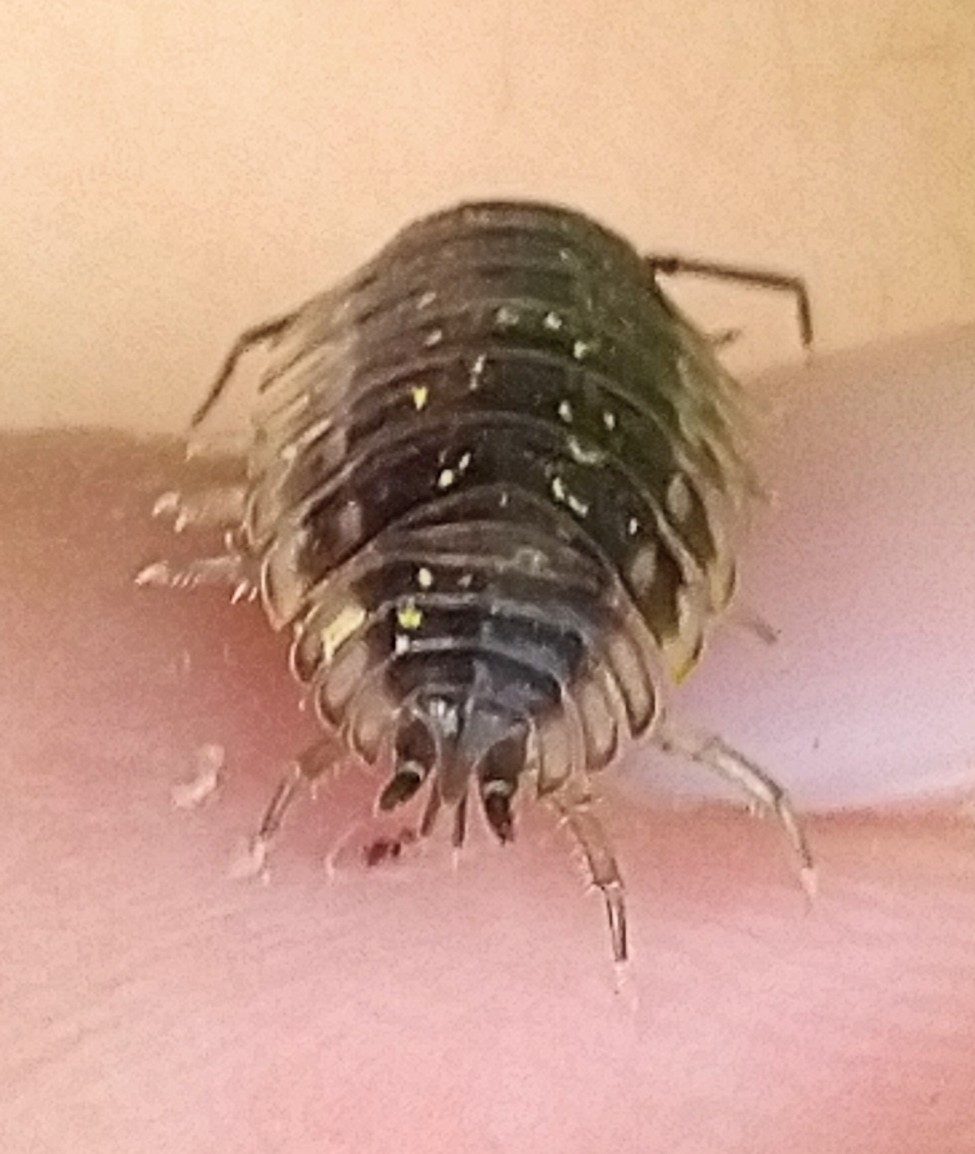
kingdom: Animalia
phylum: Arthropoda
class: Malacostraca
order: Isopoda
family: Oniscidae
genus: Oniscus
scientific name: Oniscus asellus
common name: Common shiny woodlouse
